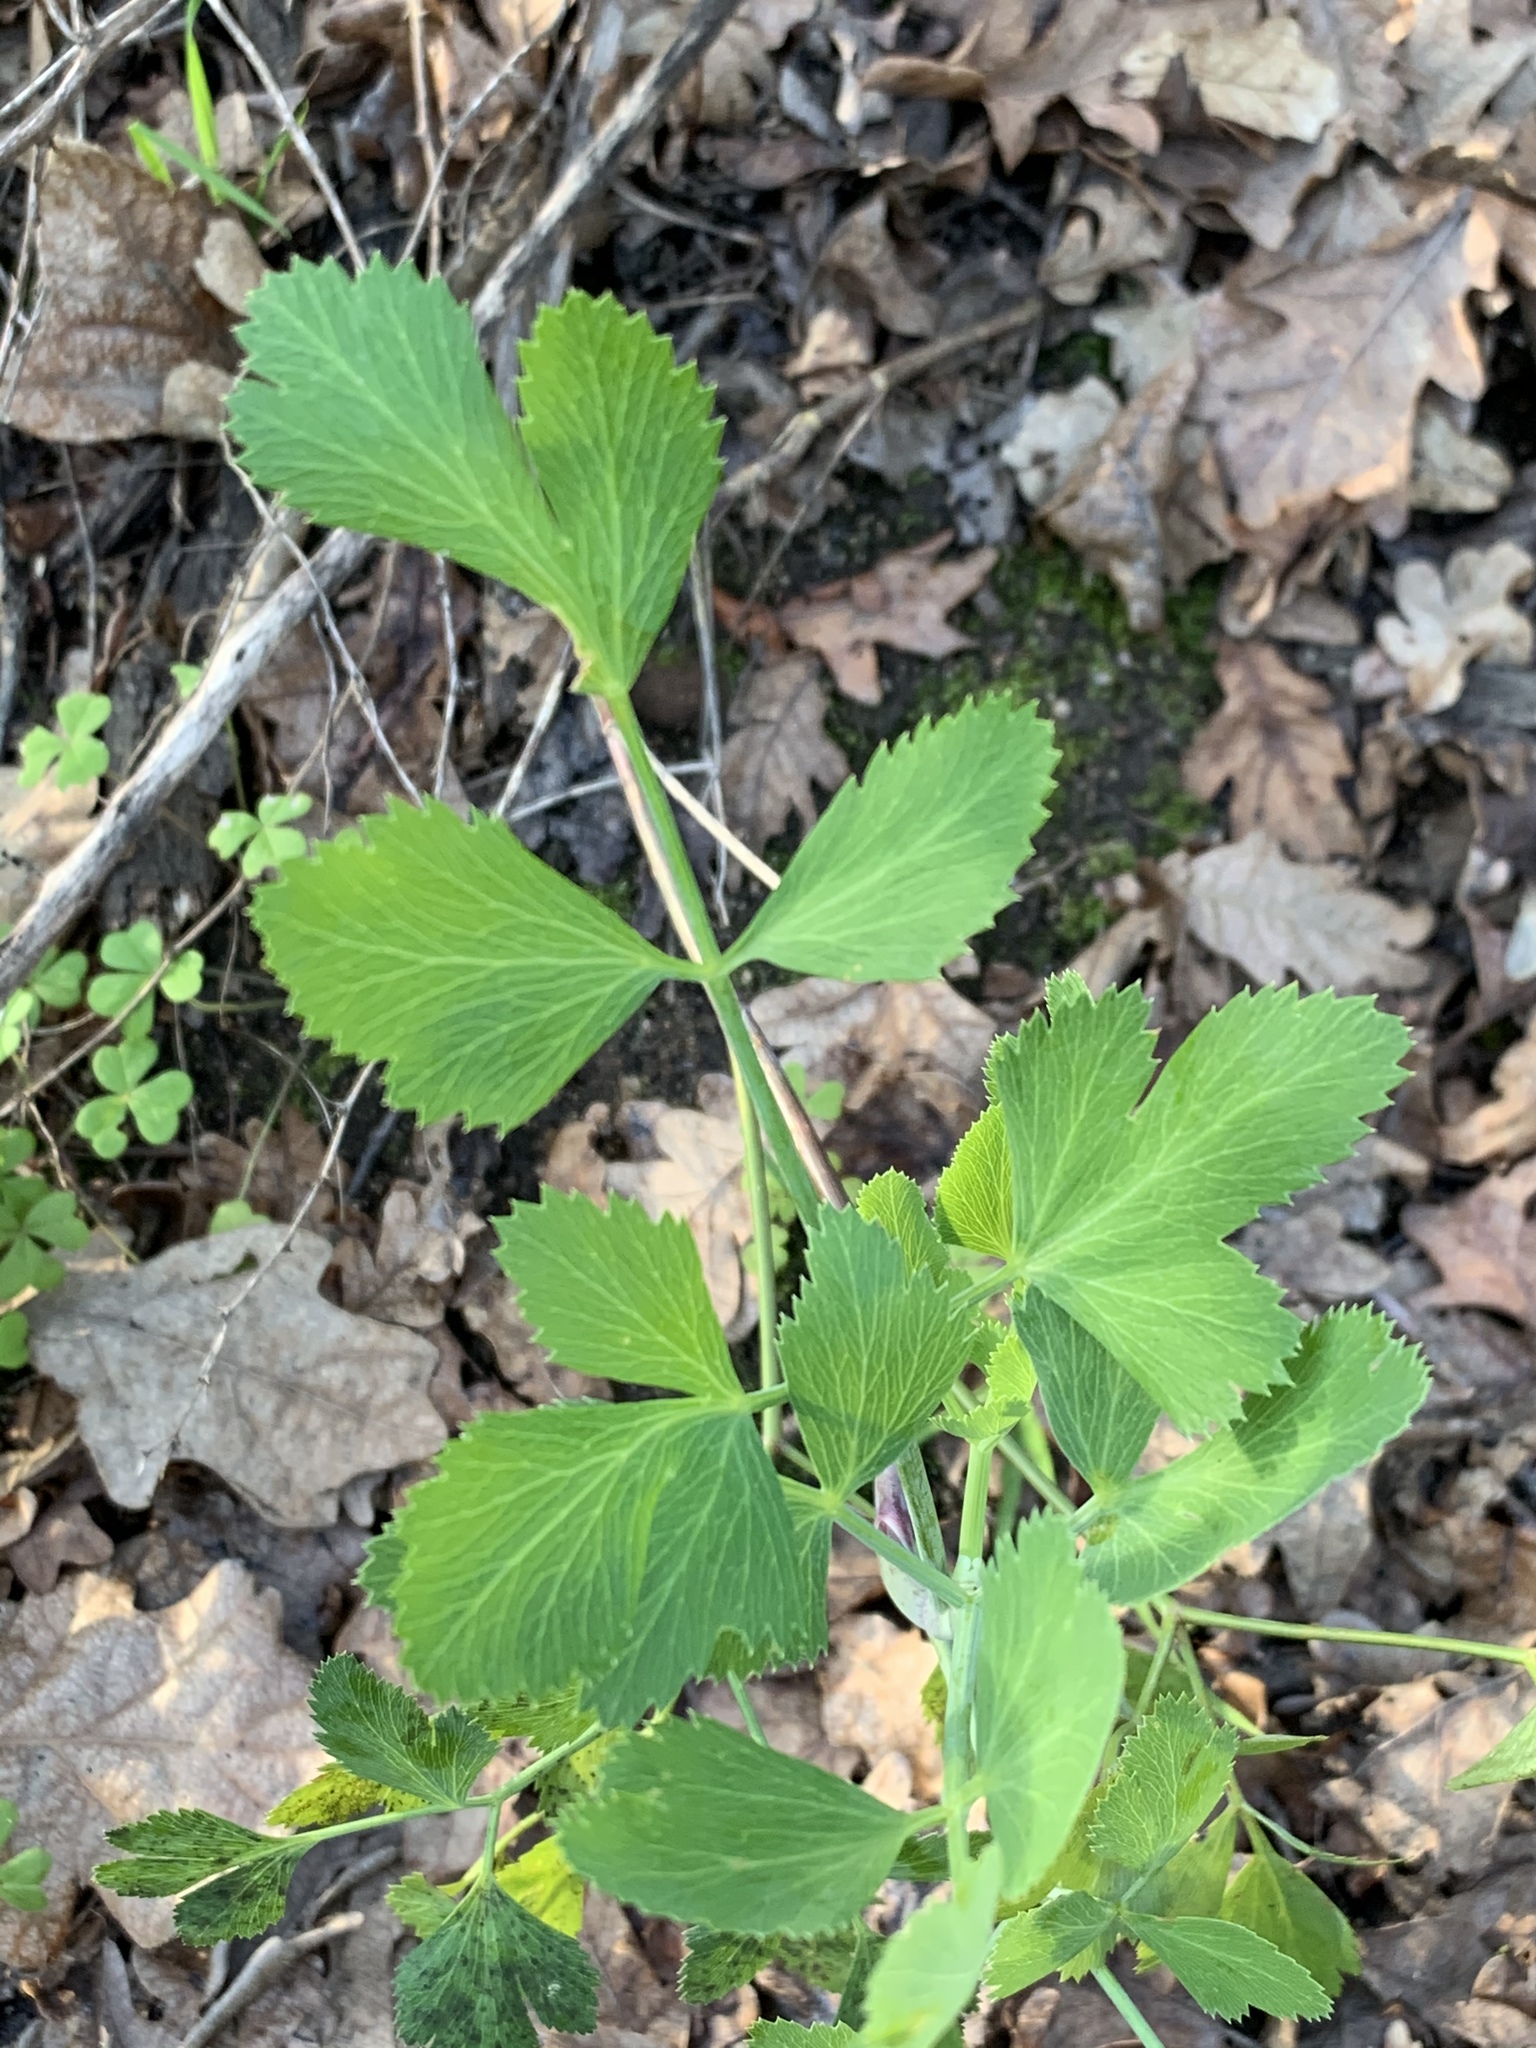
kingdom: Plantae
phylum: Tracheophyta
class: Magnoliopsida
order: Apiales
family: Apiaceae
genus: Notobubon
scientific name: Notobubon galbanum
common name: Blisterbush
